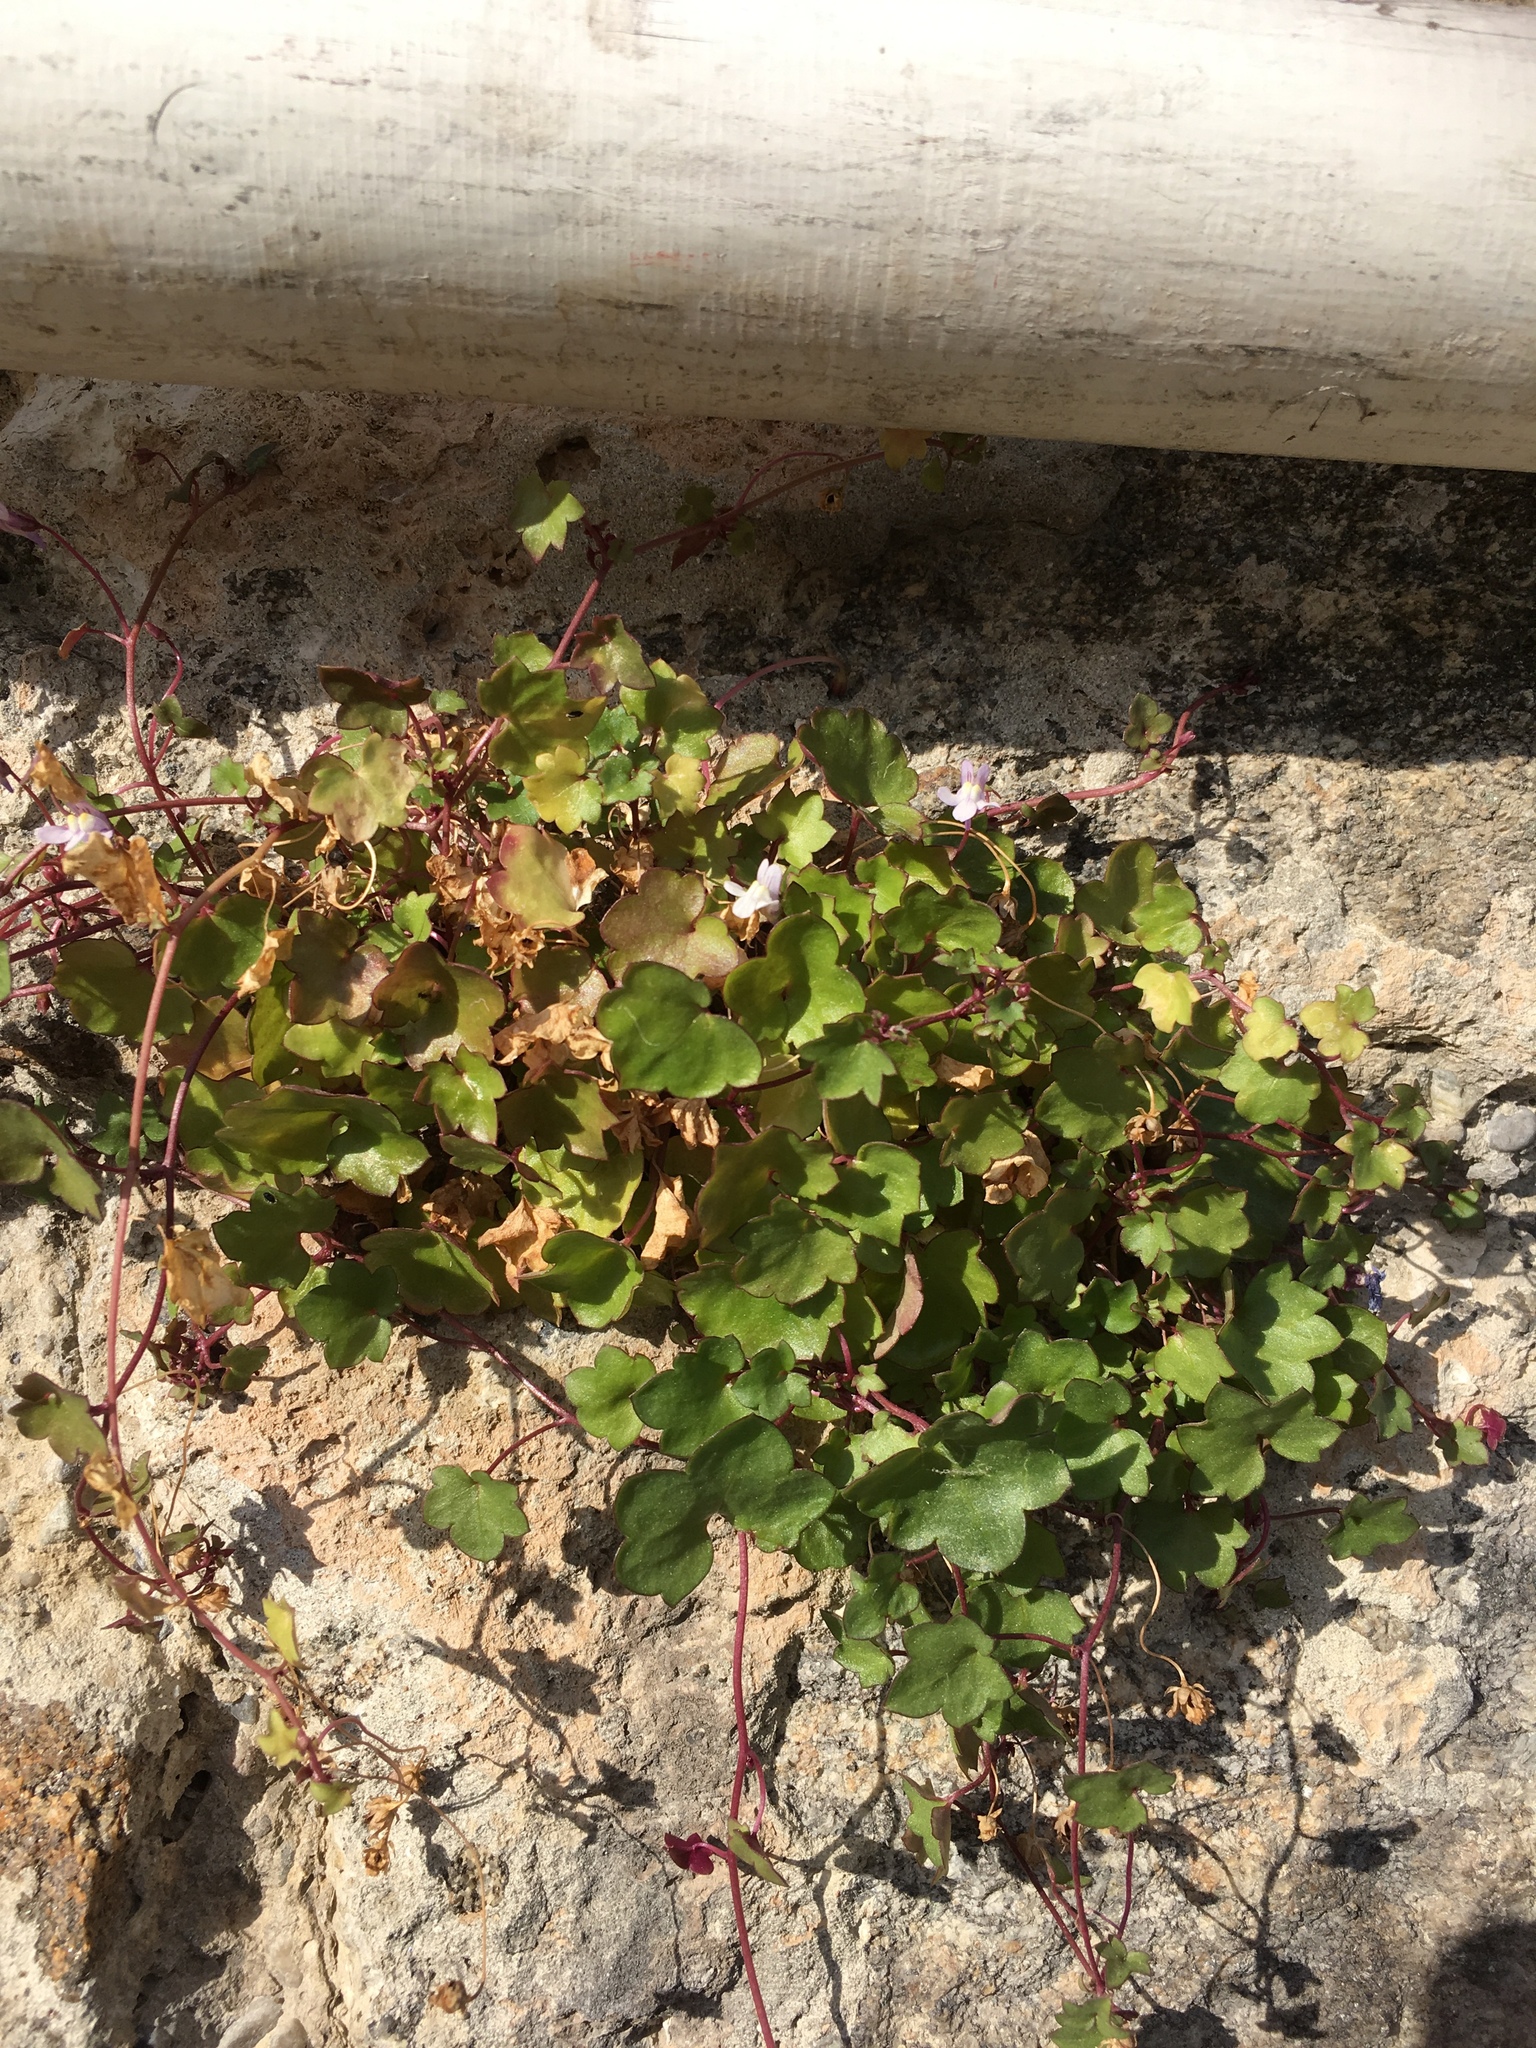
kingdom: Plantae
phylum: Tracheophyta
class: Magnoliopsida
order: Lamiales
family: Plantaginaceae
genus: Cymbalaria
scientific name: Cymbalaria muralis
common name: Ivy-leaved toadflax
